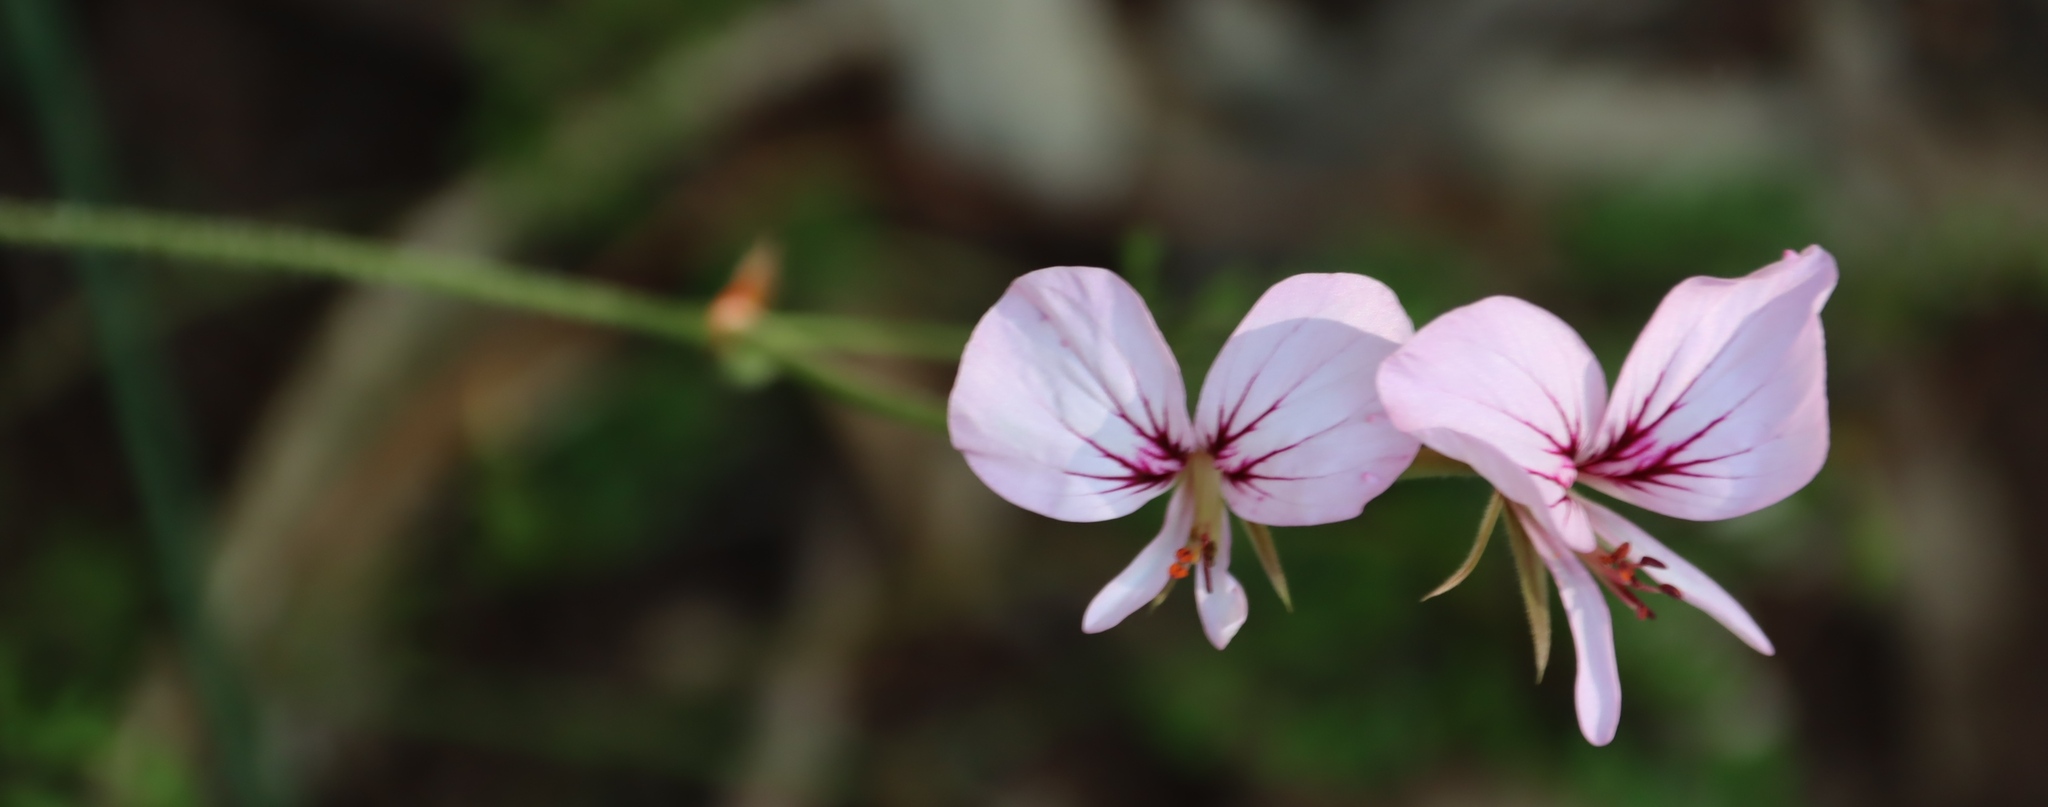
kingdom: Plantae
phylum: Tracheophyta
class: Magnoliopsida
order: Geraniales
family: Geraniaceae
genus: Pelargonium
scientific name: Pelargonium myrrhifolium
